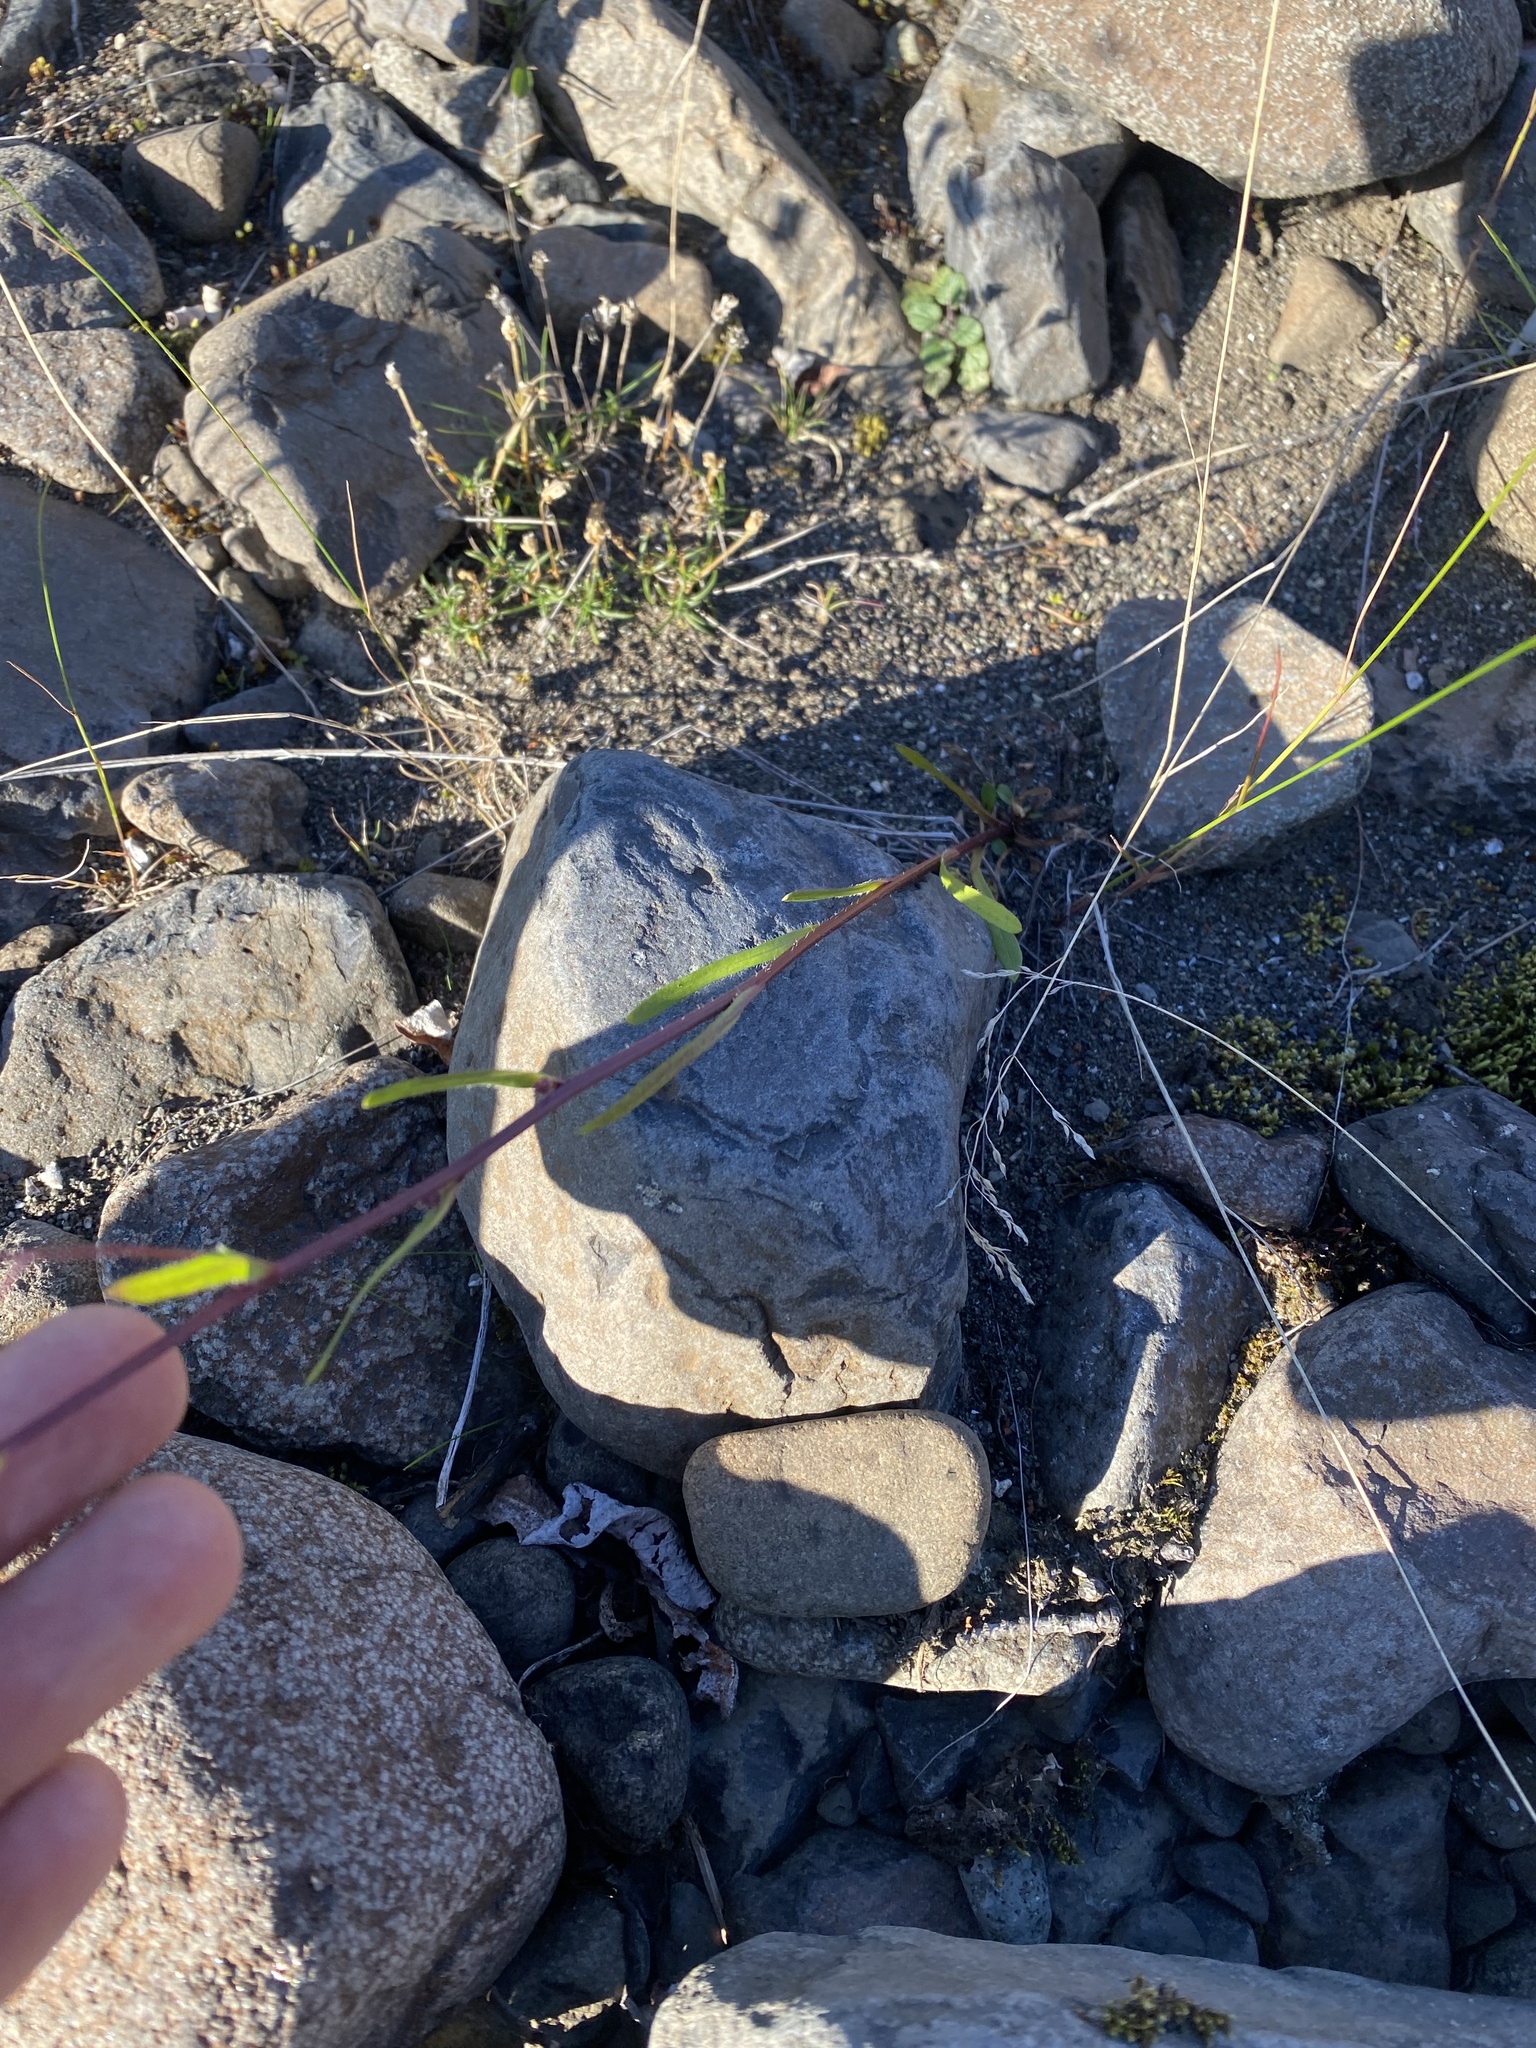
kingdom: Plantae
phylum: Tracheophyta
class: Magnoliopsida
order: Asterales
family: Asteraceae
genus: Erigeron
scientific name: Erigeron acris
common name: Blue fleabane
